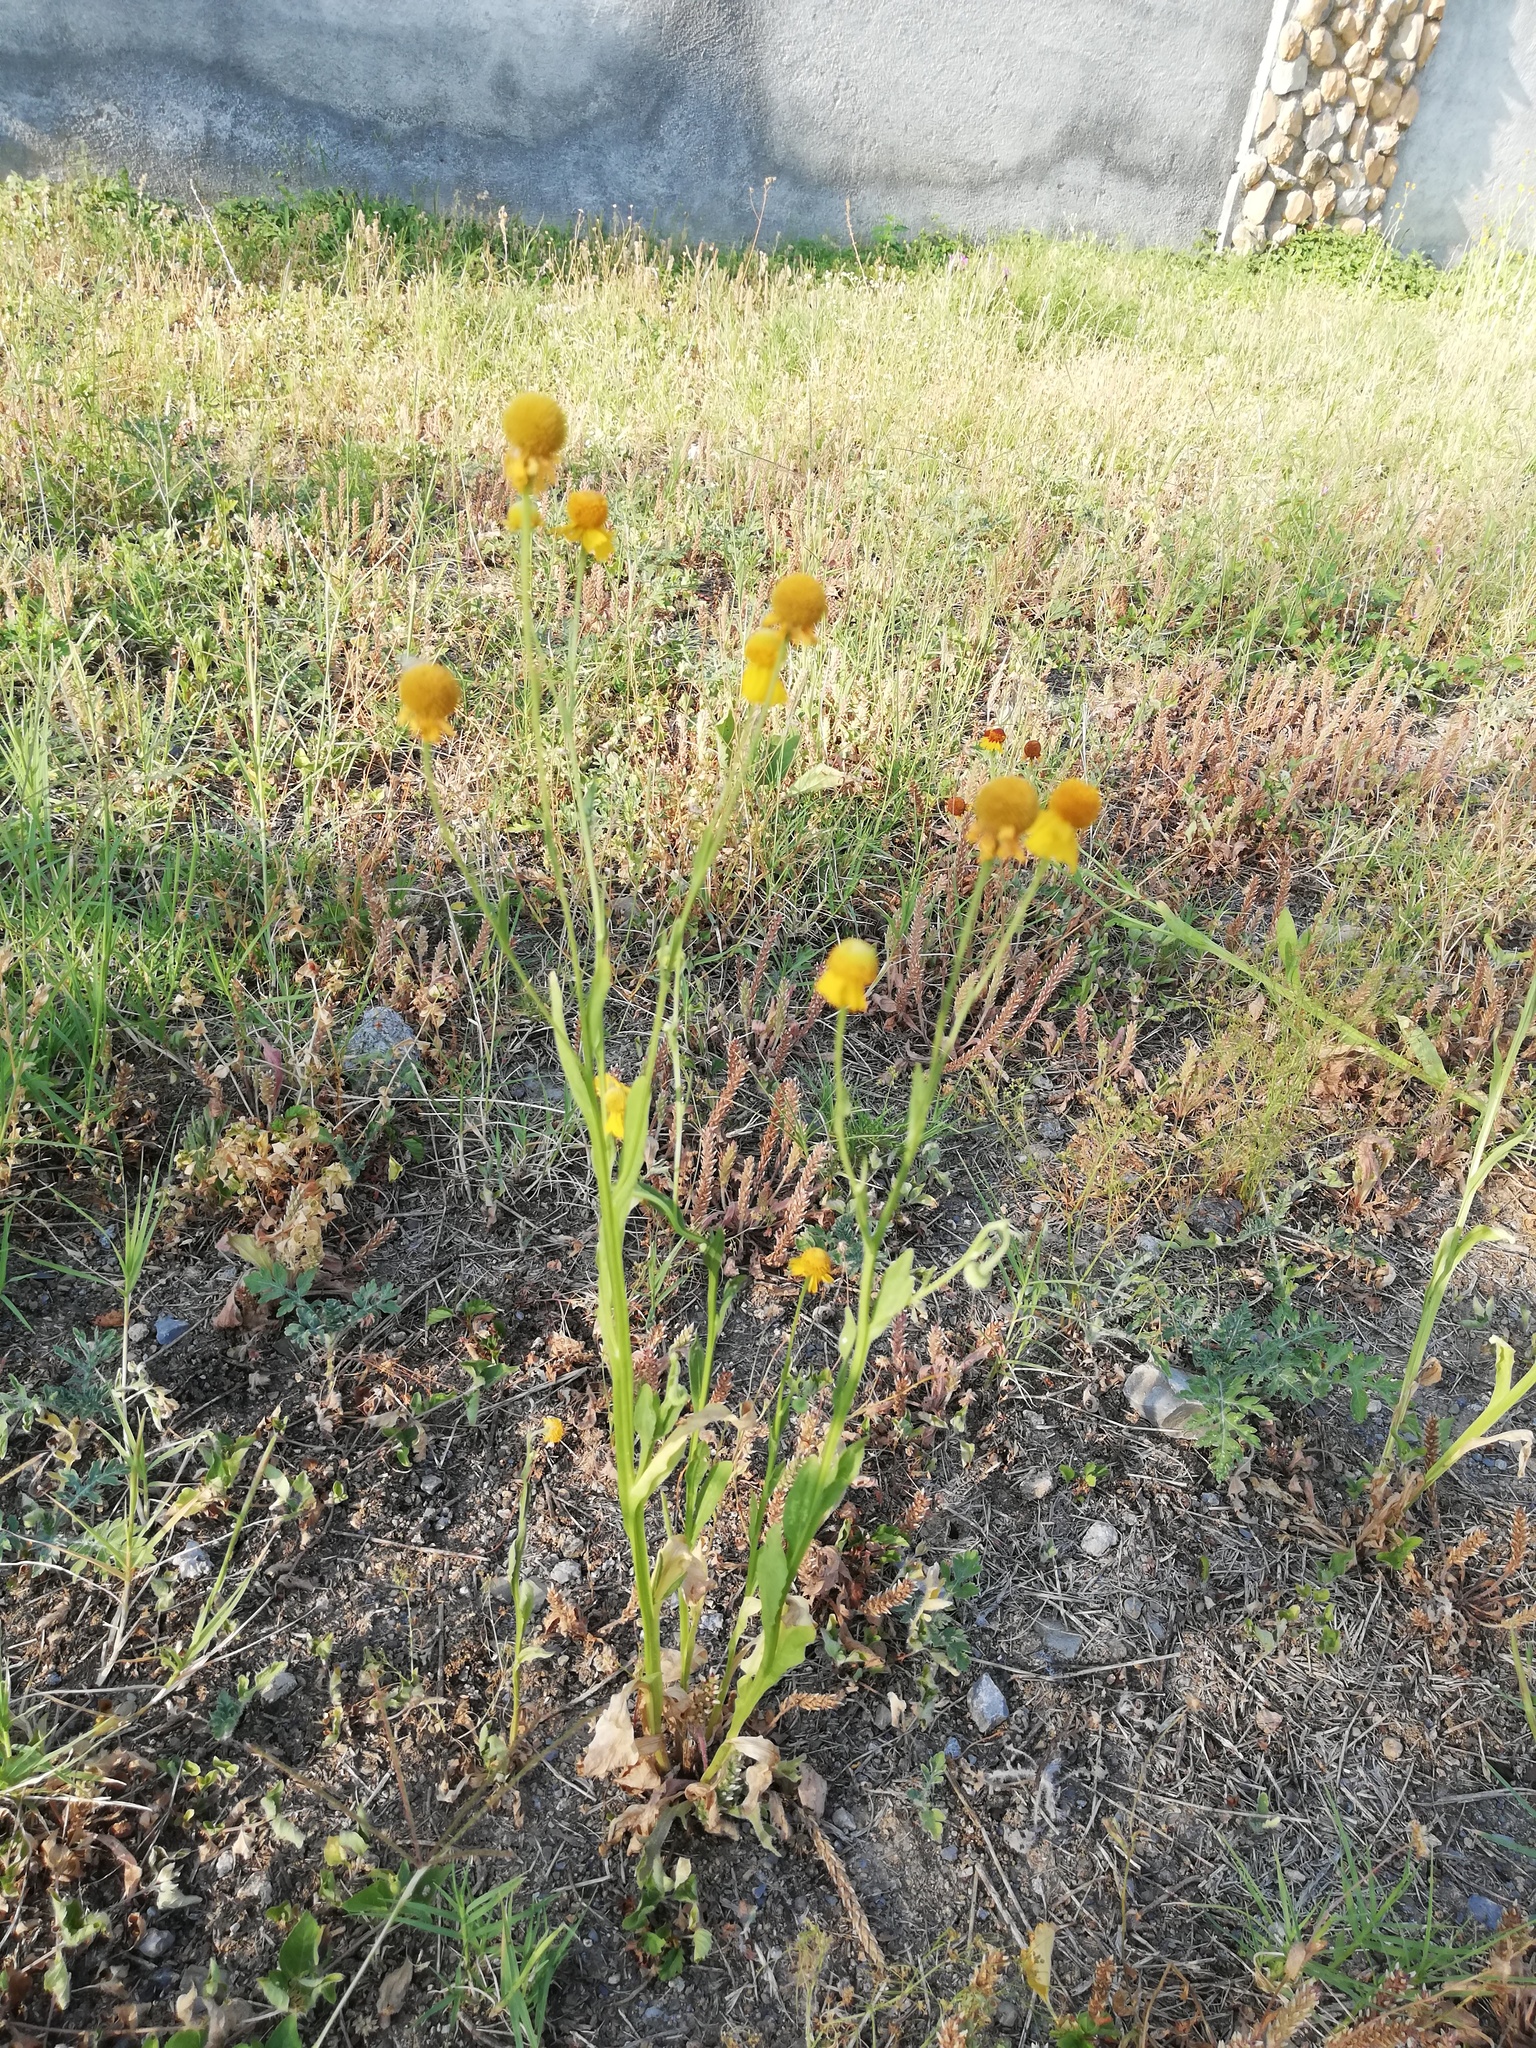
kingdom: Plantae
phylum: Tracheophyta
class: Magnoliopsida
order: Asterales
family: Asteraceae
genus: Helenium
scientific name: Helenium amphibolum
